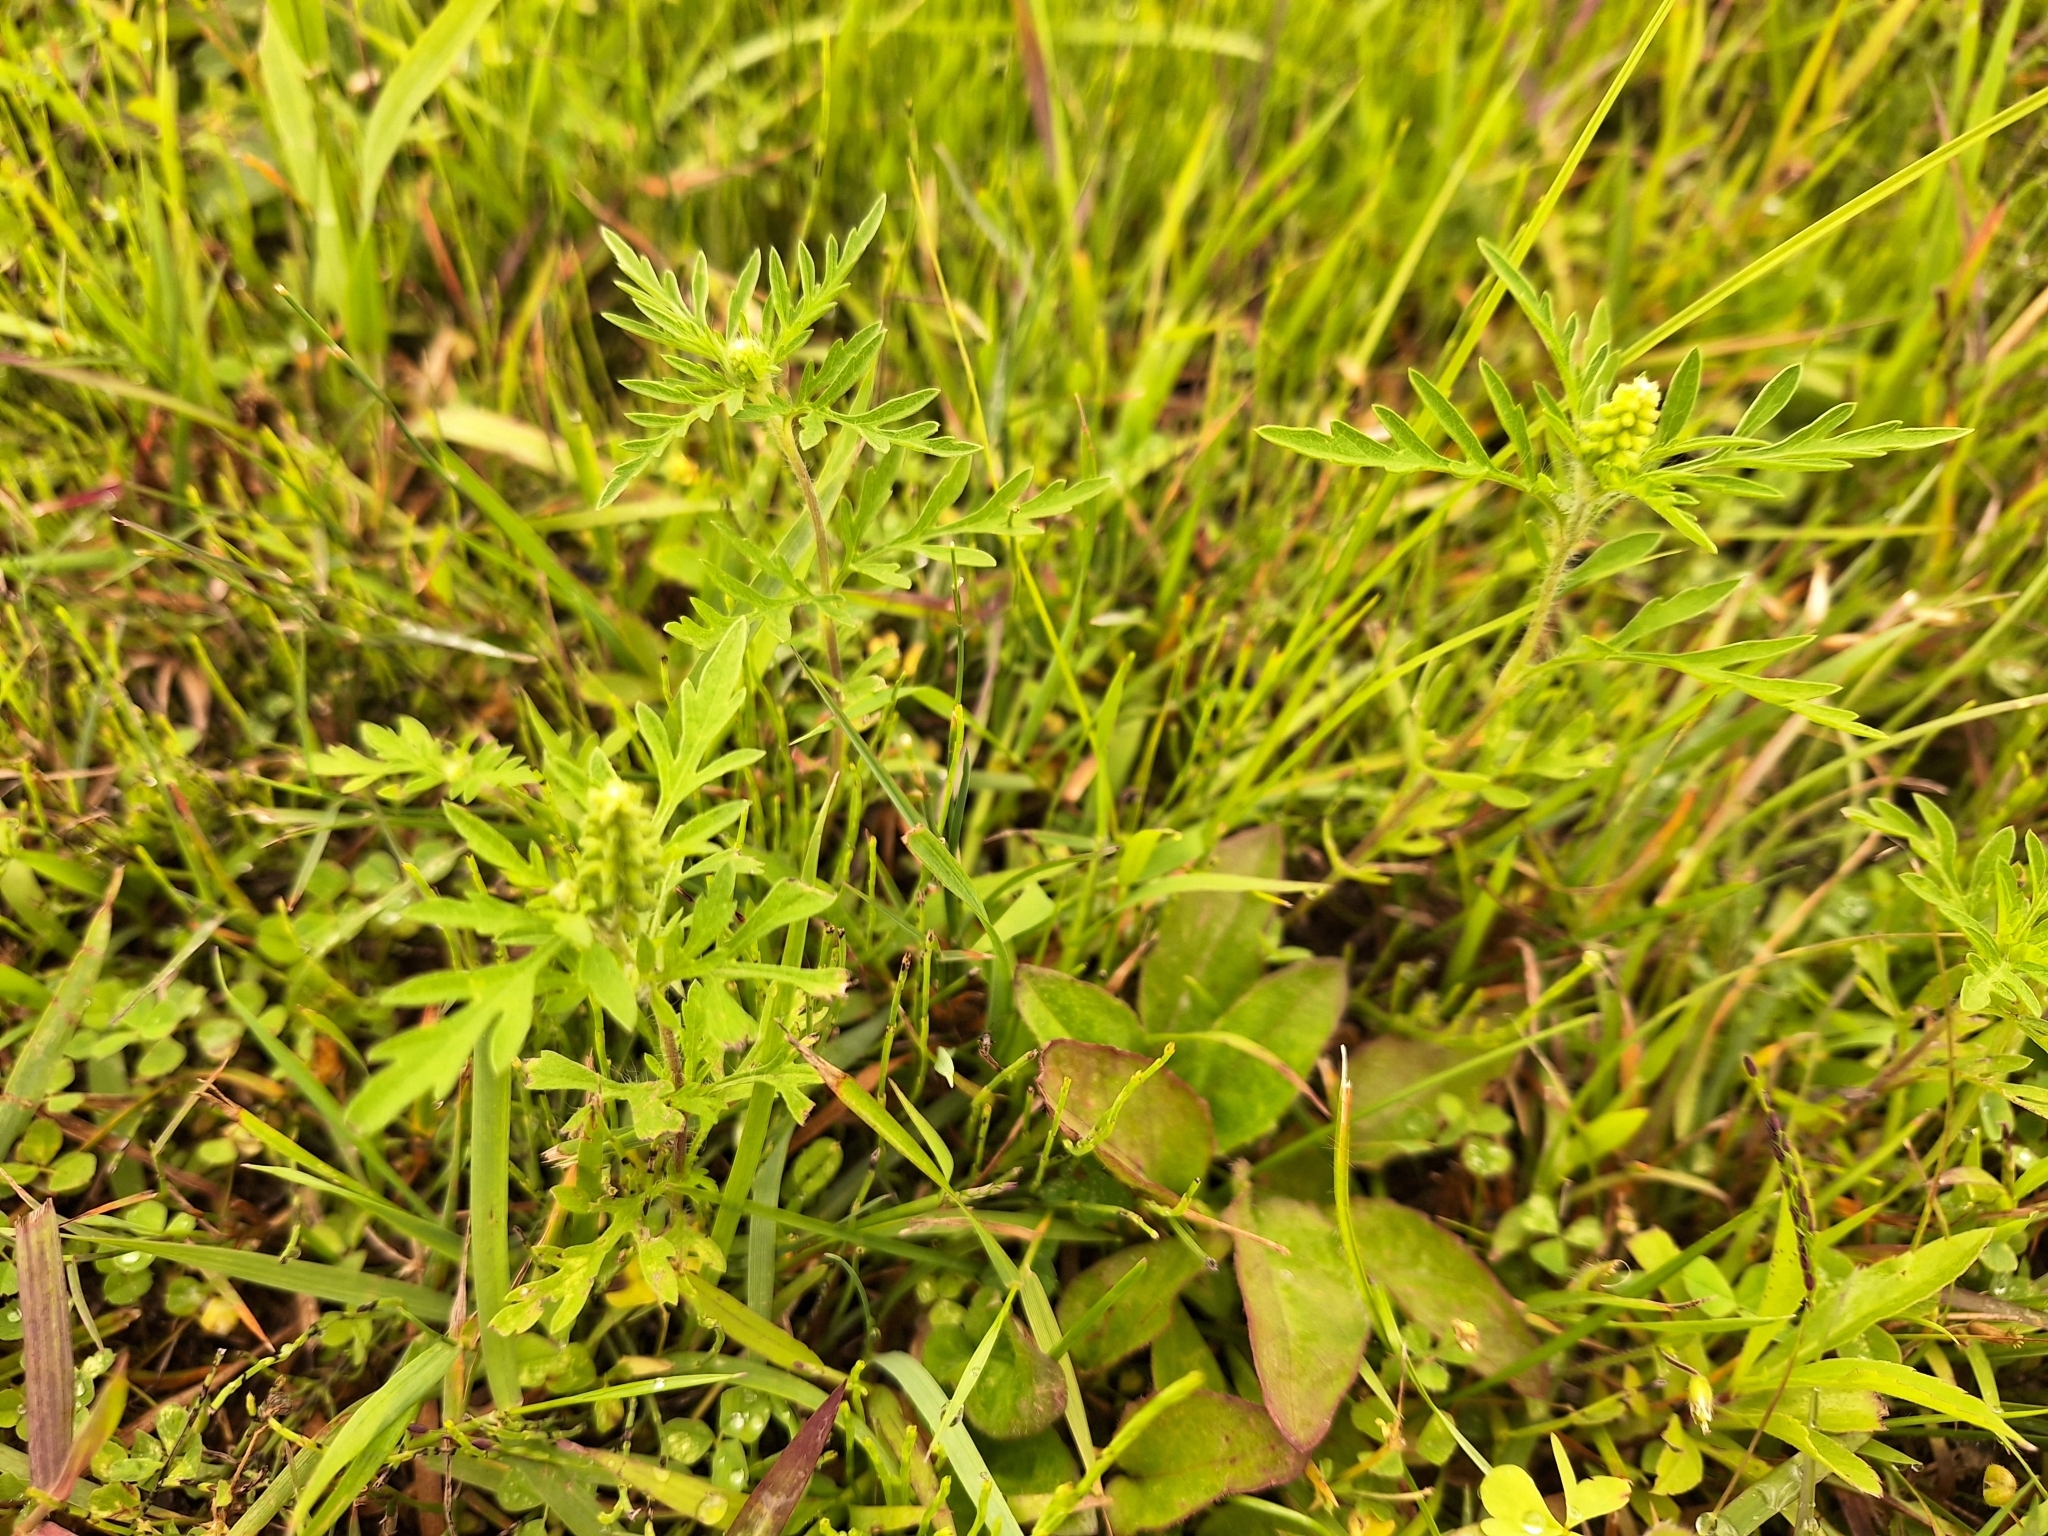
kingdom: Plantae
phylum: Tracheophyta
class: Magnoliopsida
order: Asterales
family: Asteraceae
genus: Ambrosia
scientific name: Ambrosia artemisiifolia
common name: Annual ragweed
